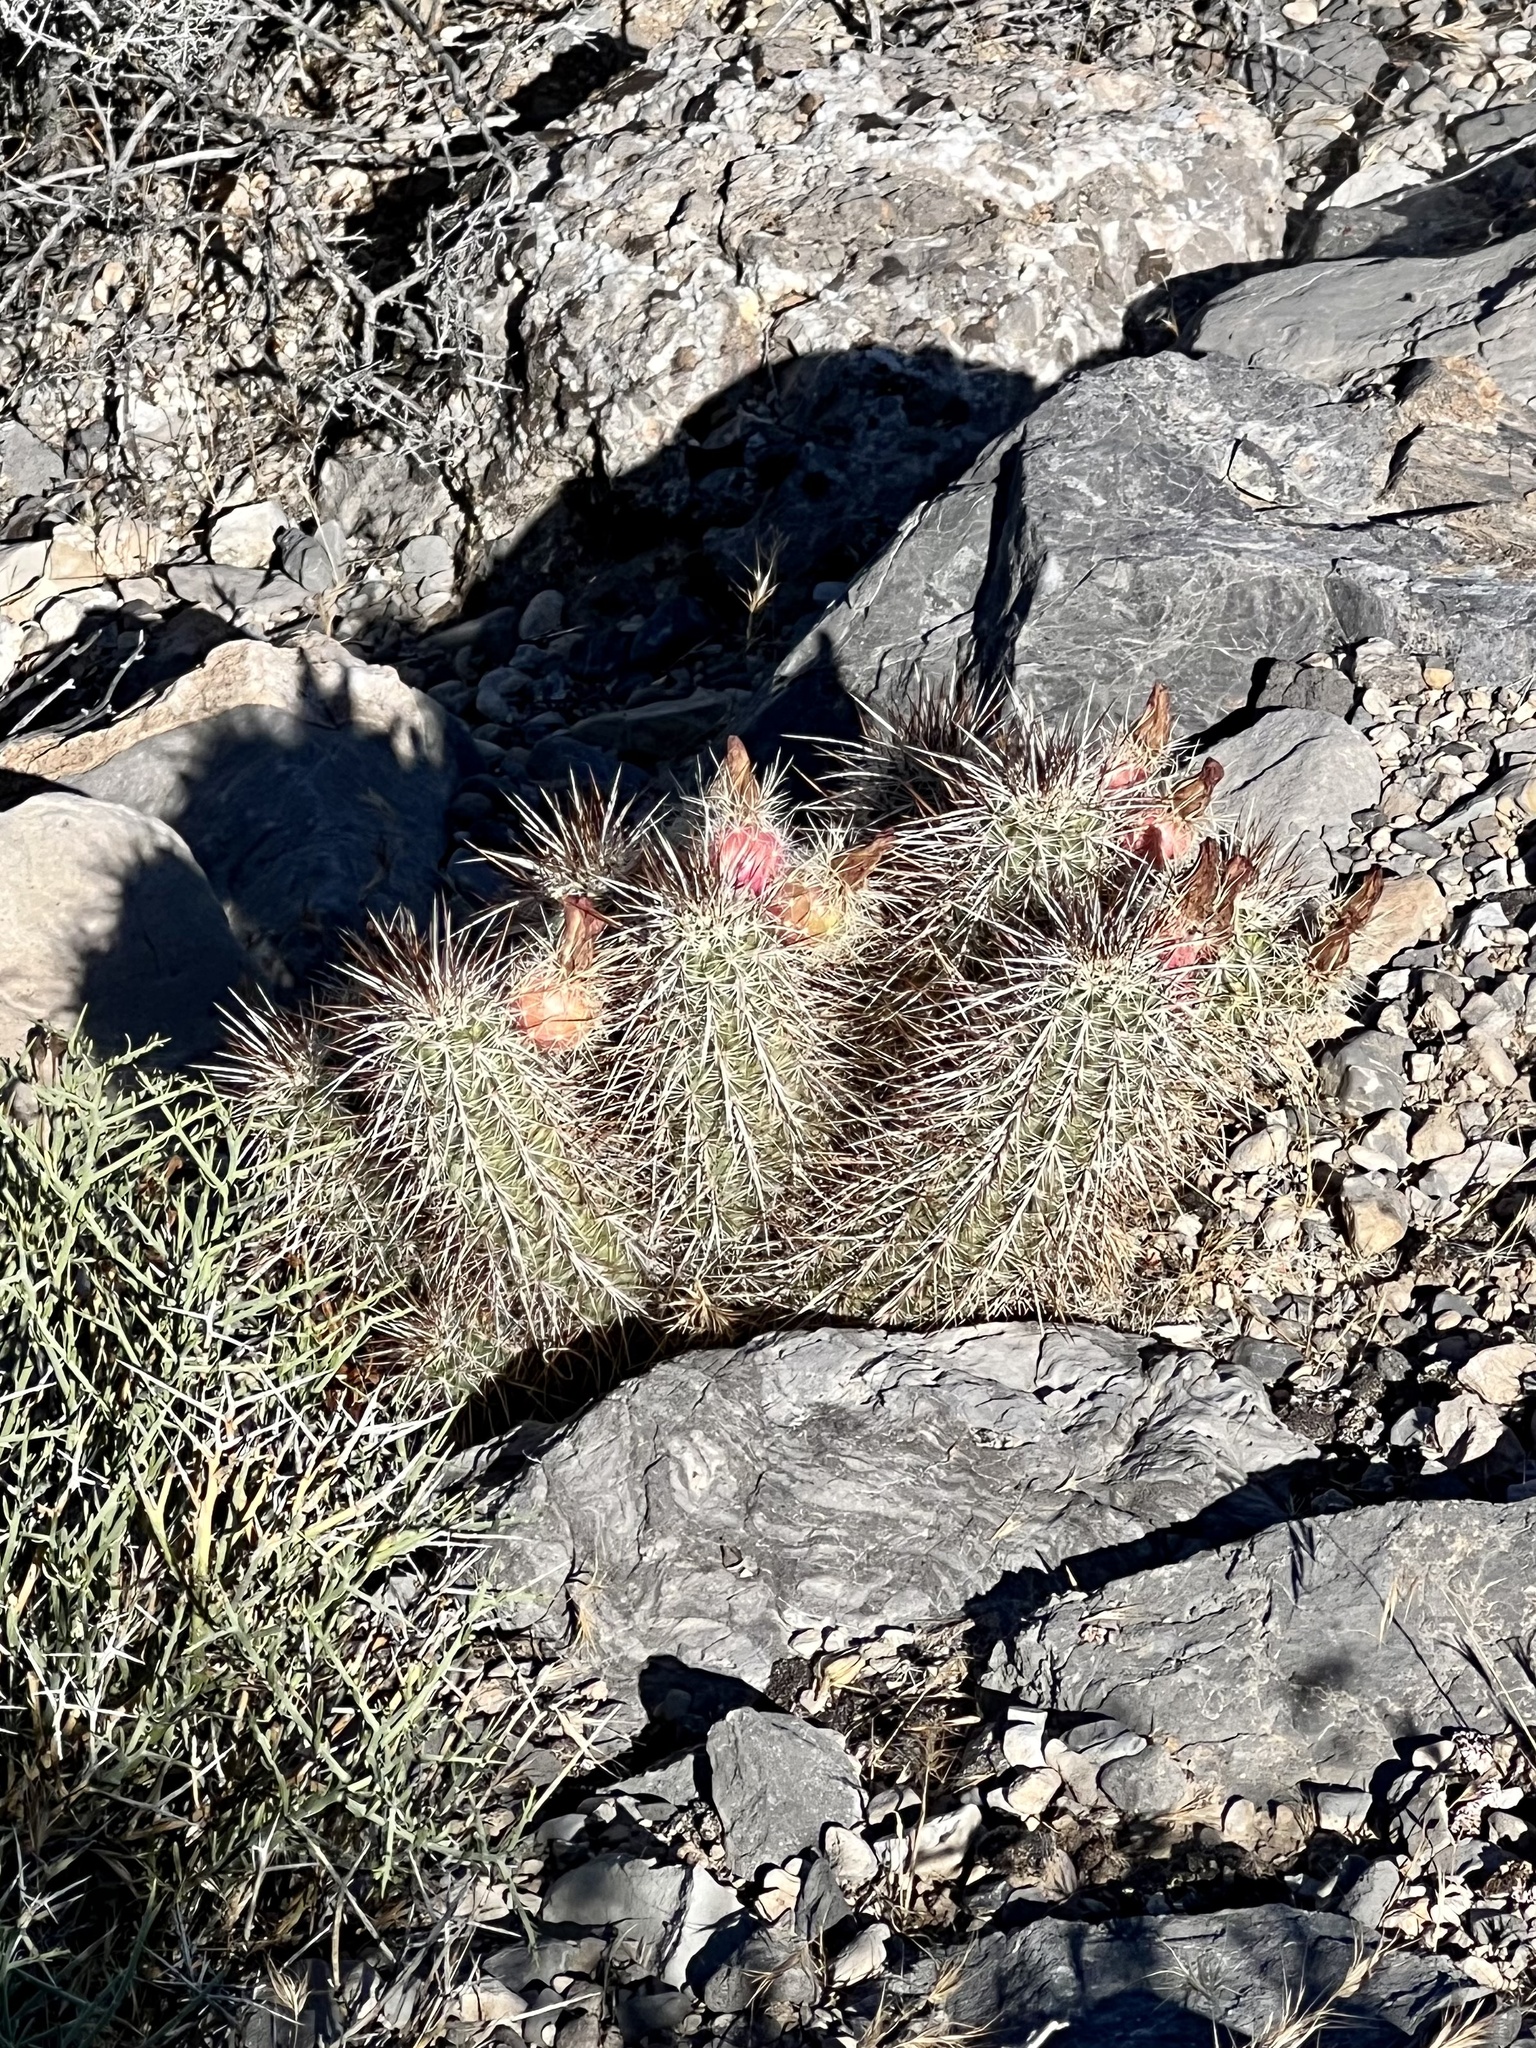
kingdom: Plantae
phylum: Tracheophyta
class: Magnoliopsida
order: Caryophyllales
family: Cactaceae
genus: Echinocereus
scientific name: Echinocereus engelmannii
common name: Engelmann's hedgehog cactus
